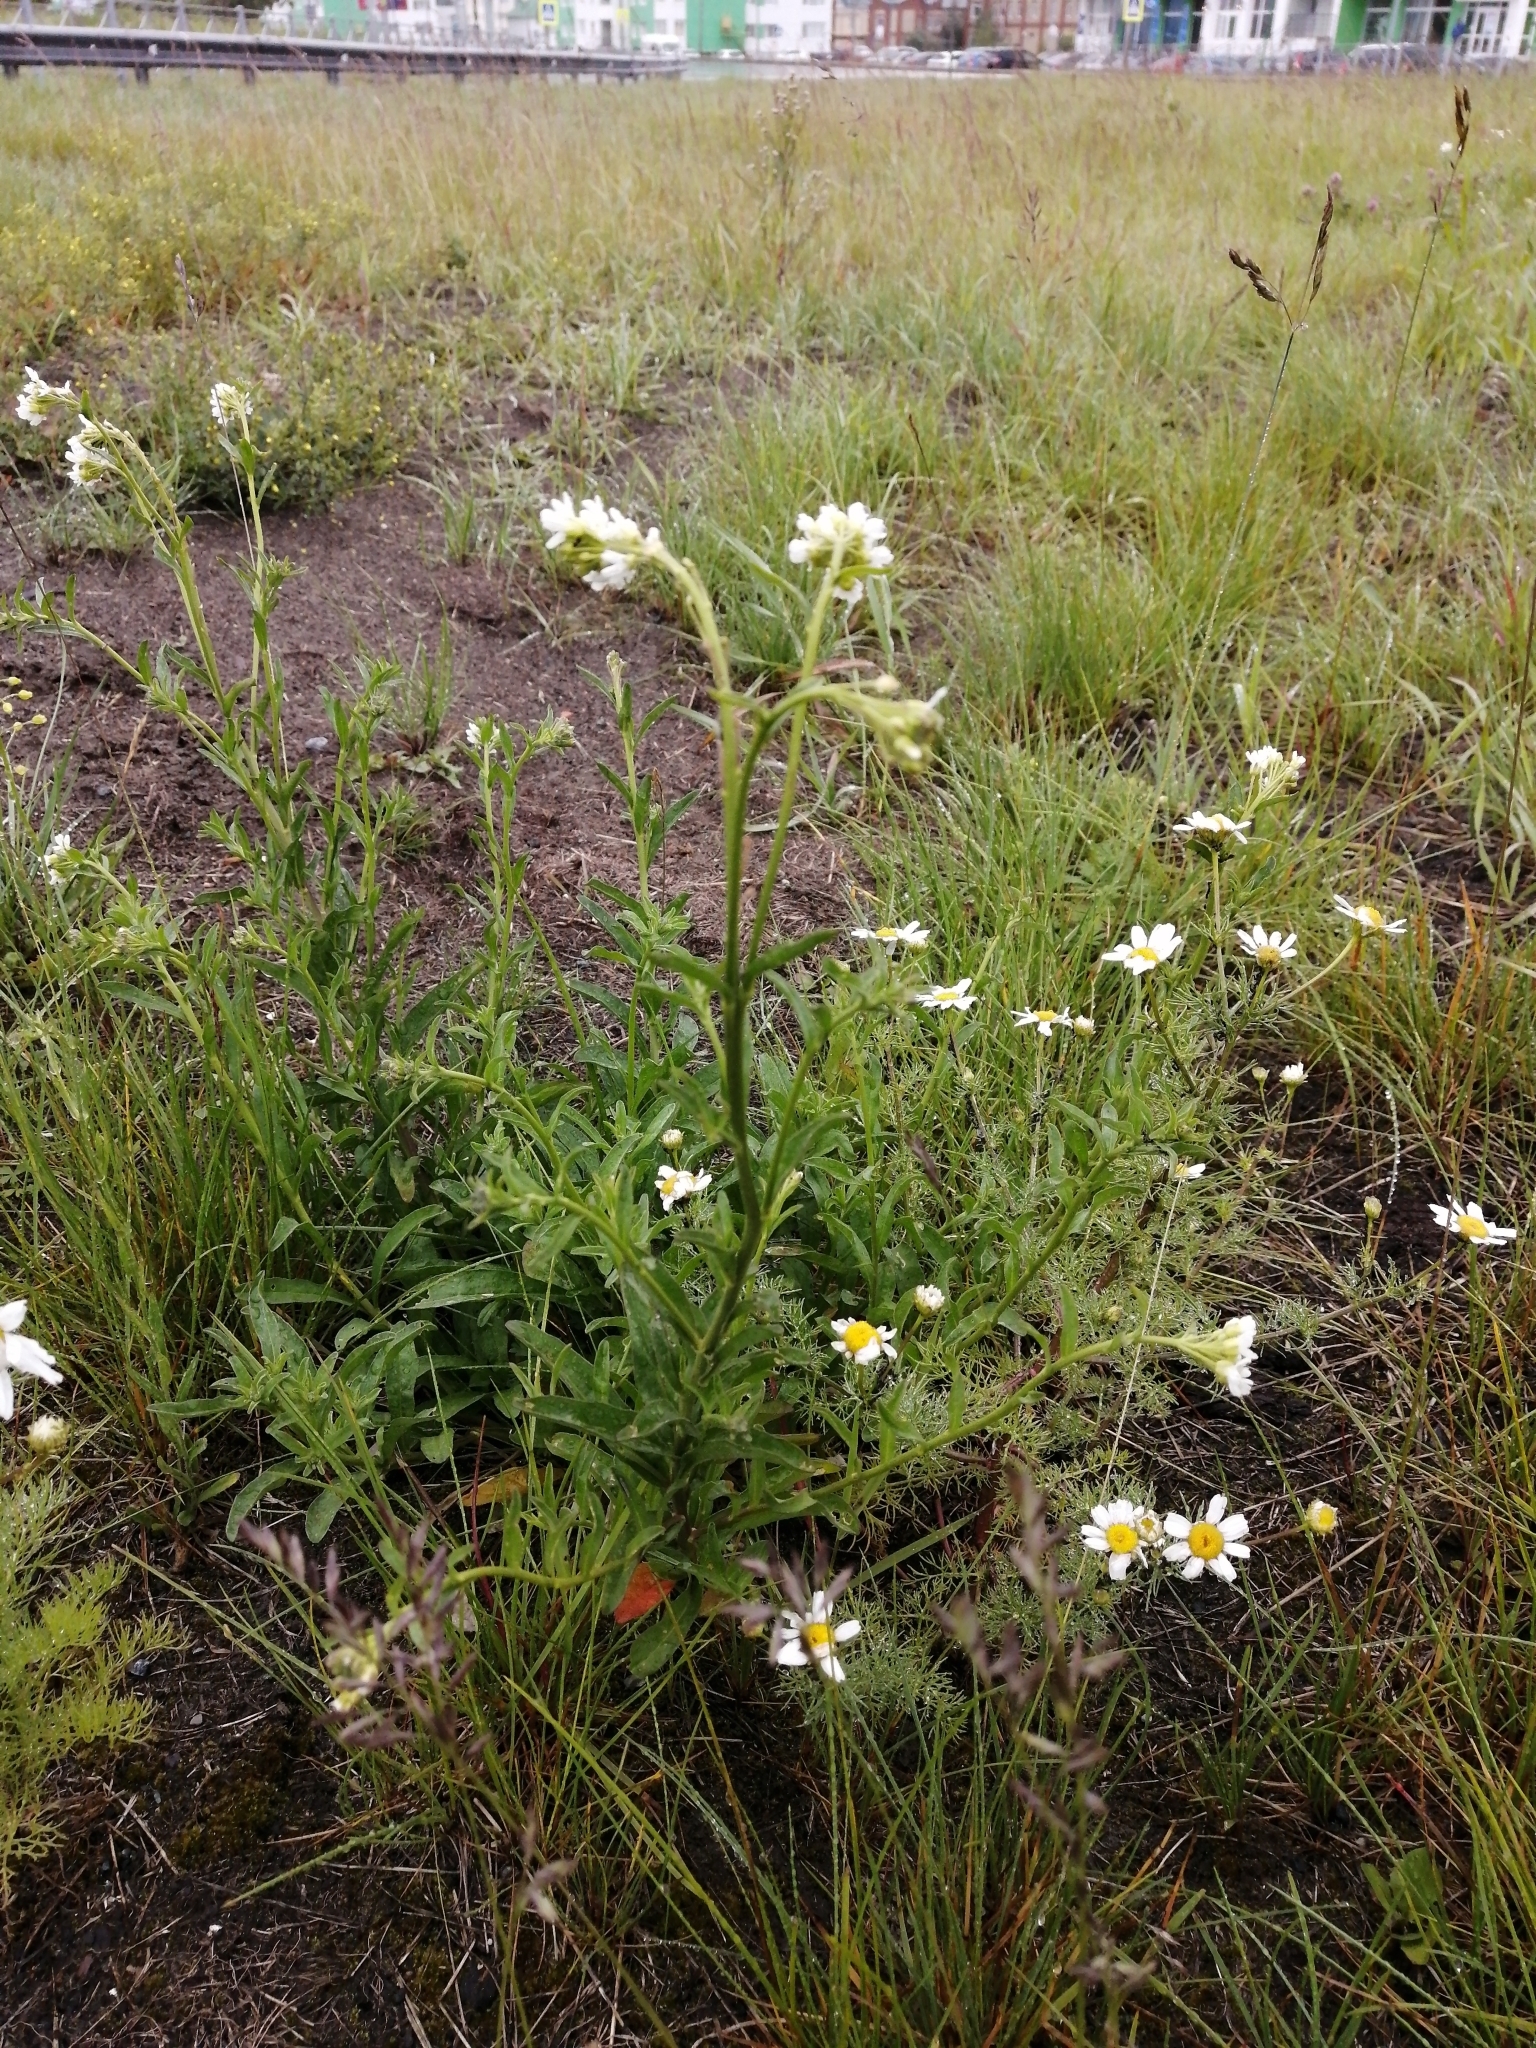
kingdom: Plantae
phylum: Tracheophyta
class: Magnoliopsida
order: Brassicales
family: Brassicaceae
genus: Berteroa
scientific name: Berteroa incana
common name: Hoary alison
